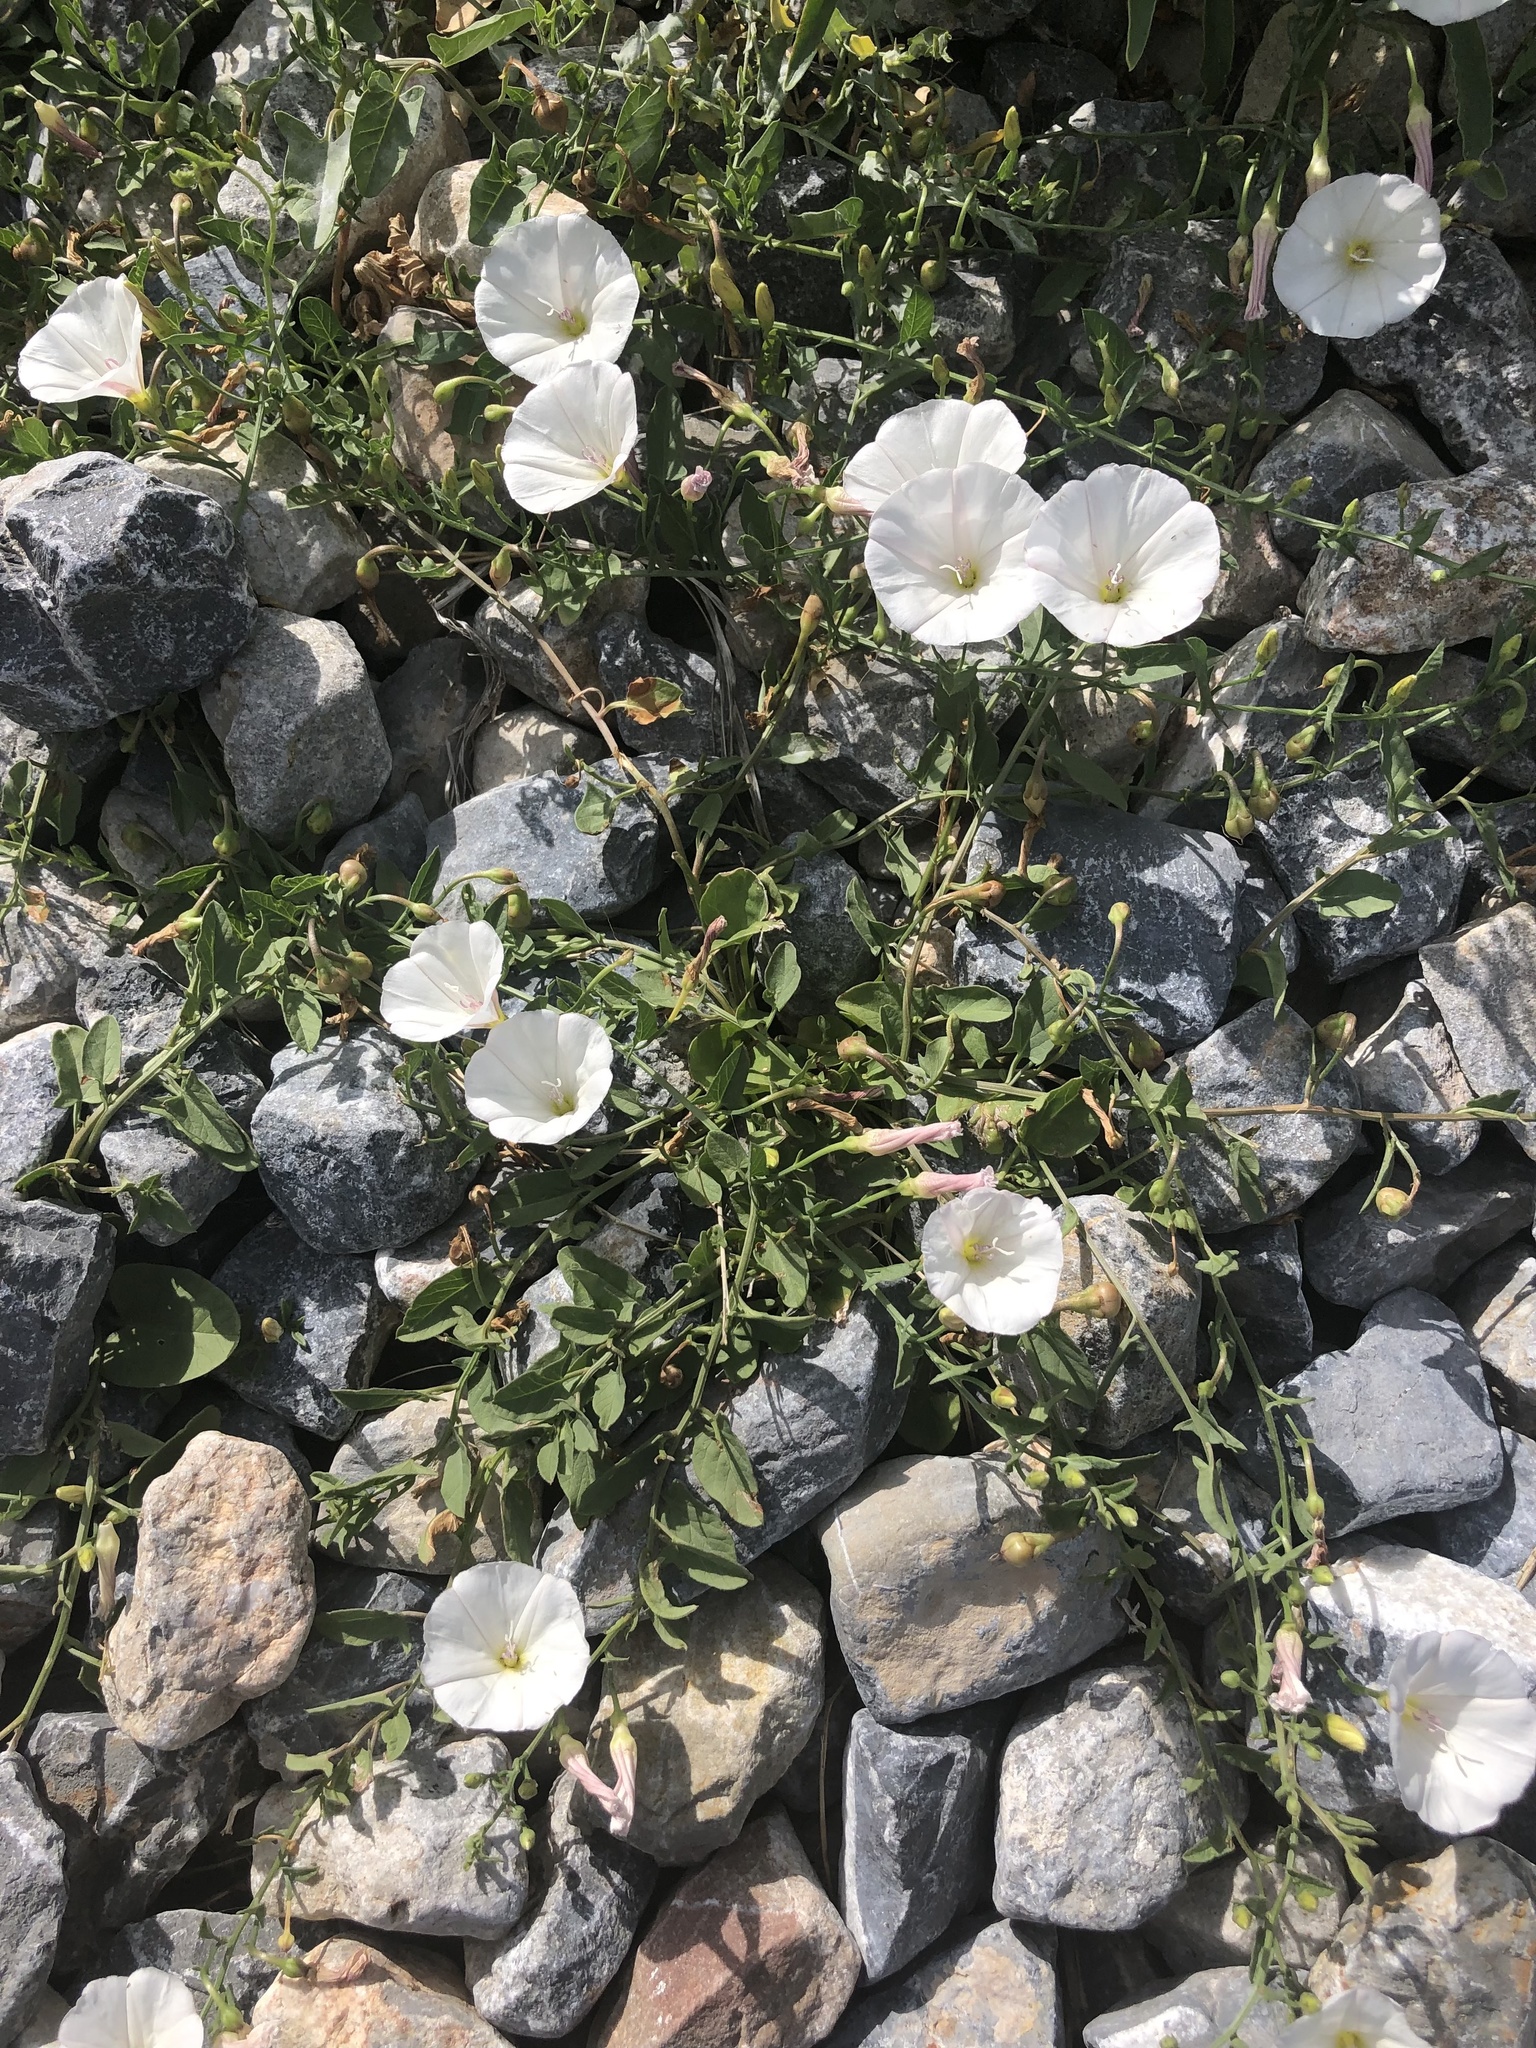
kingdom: Plantae
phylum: Tracheophyta
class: Magnoliopsida
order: Solanales
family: Convolvulaceae
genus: Convolvulus
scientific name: Convolvulus arvensis
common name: Field bindweed
